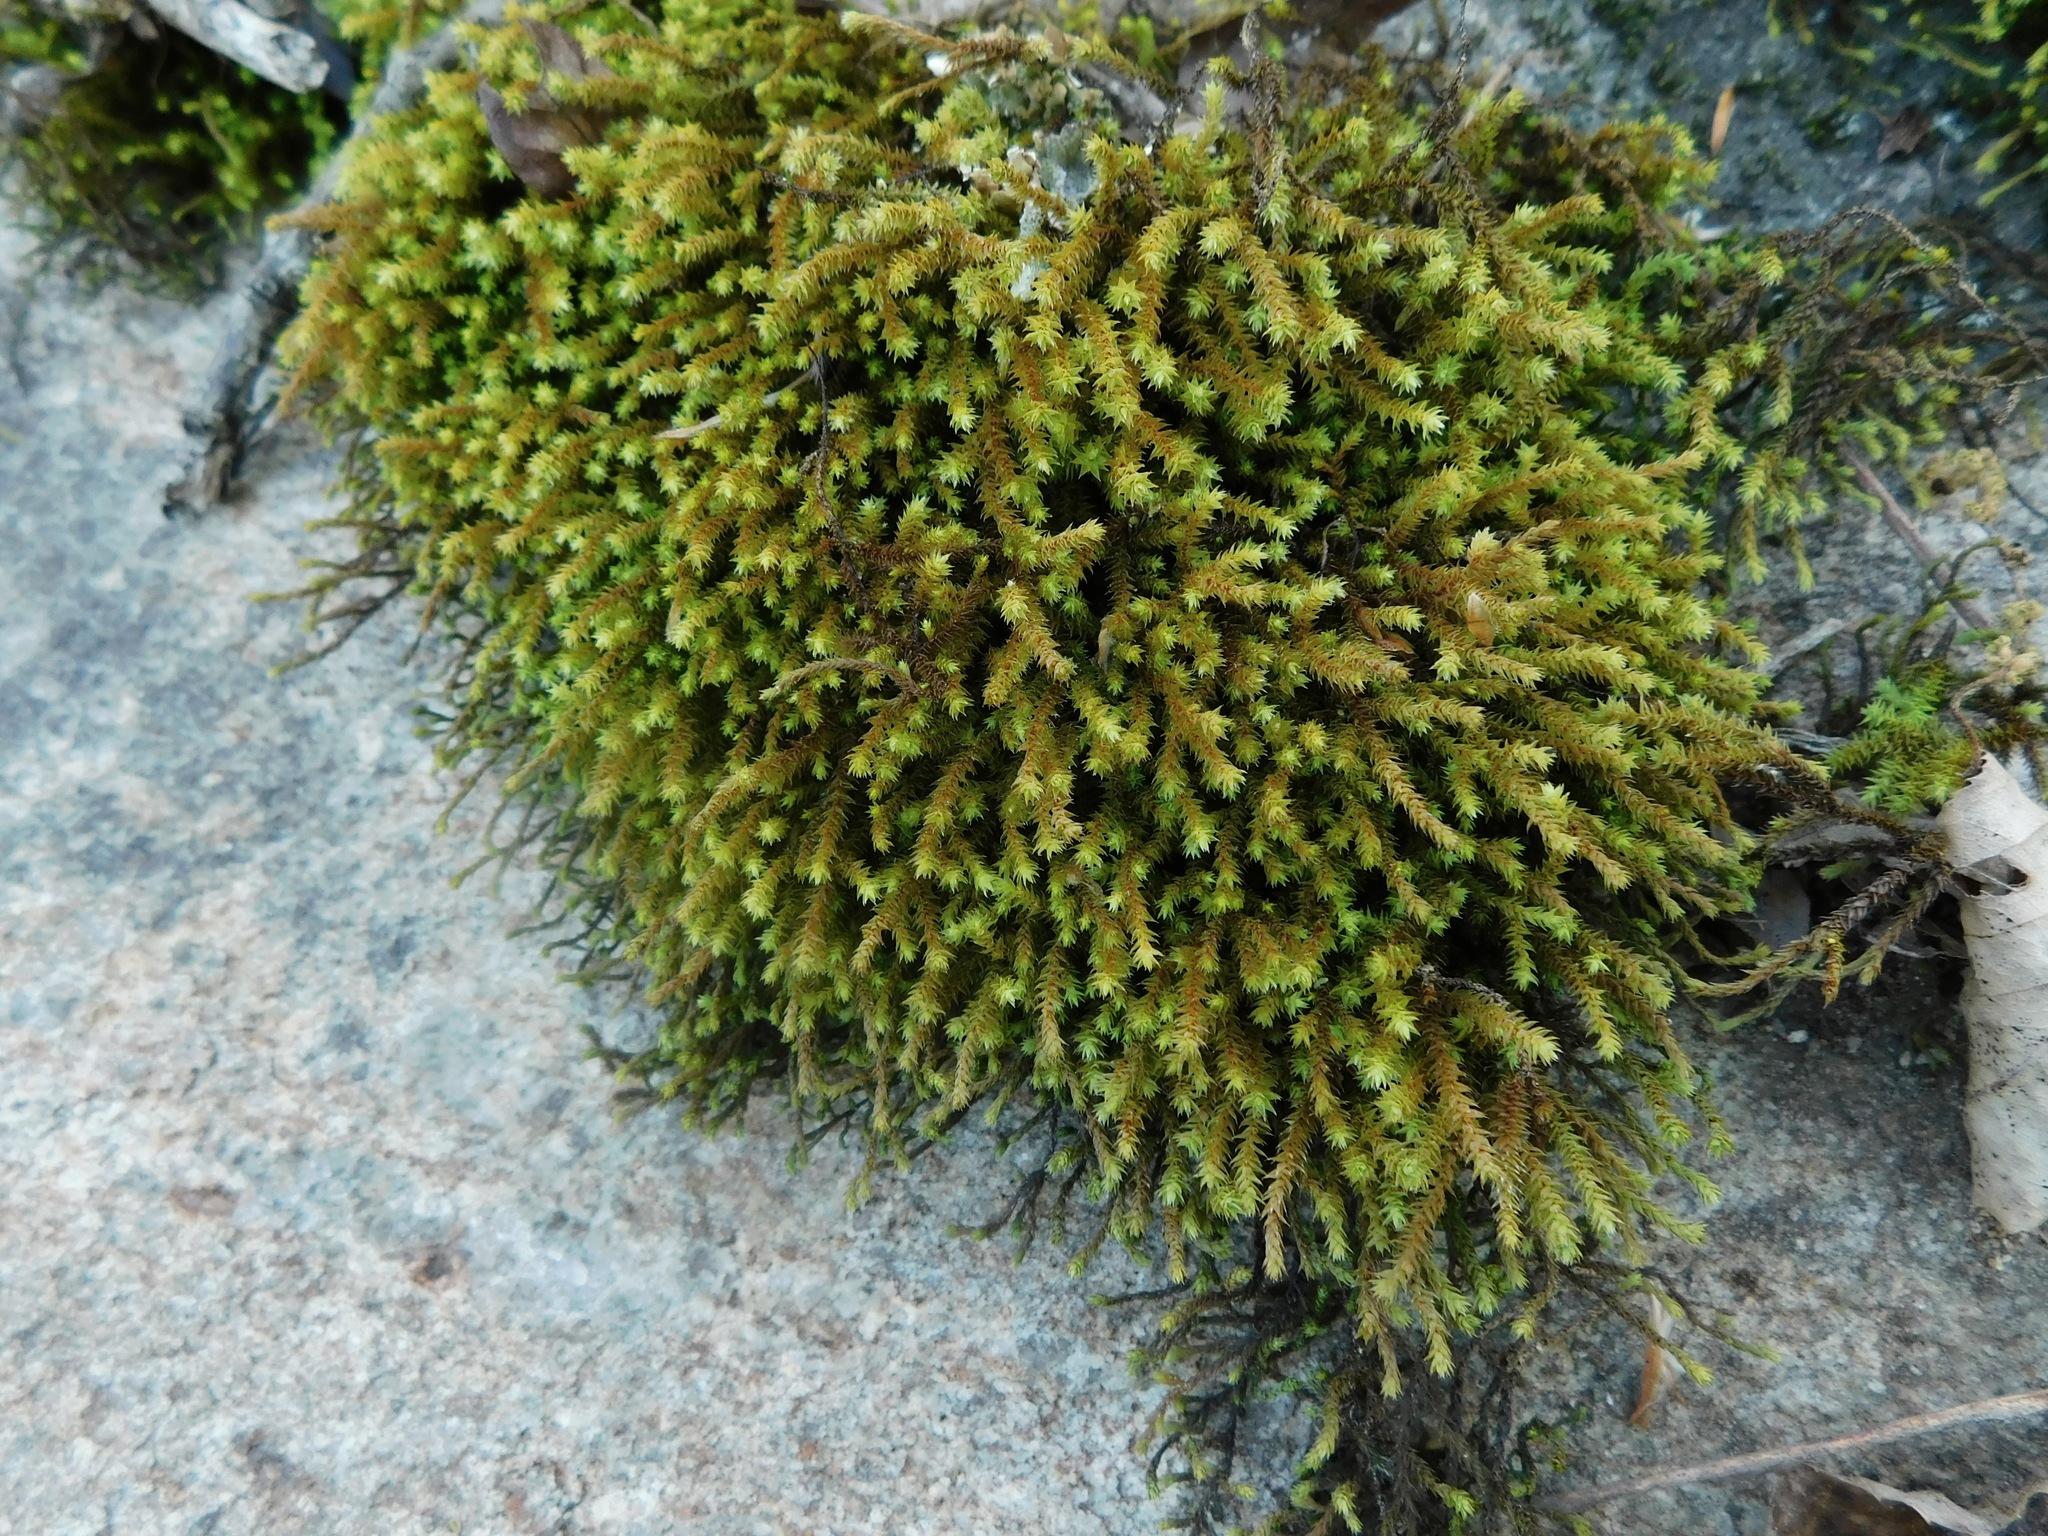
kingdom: Plantae
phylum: Bryophyta
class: Bryopsida
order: Hedwigiales
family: Hedwigiaceae
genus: Hedwigia
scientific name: Hedwigia ciliata
